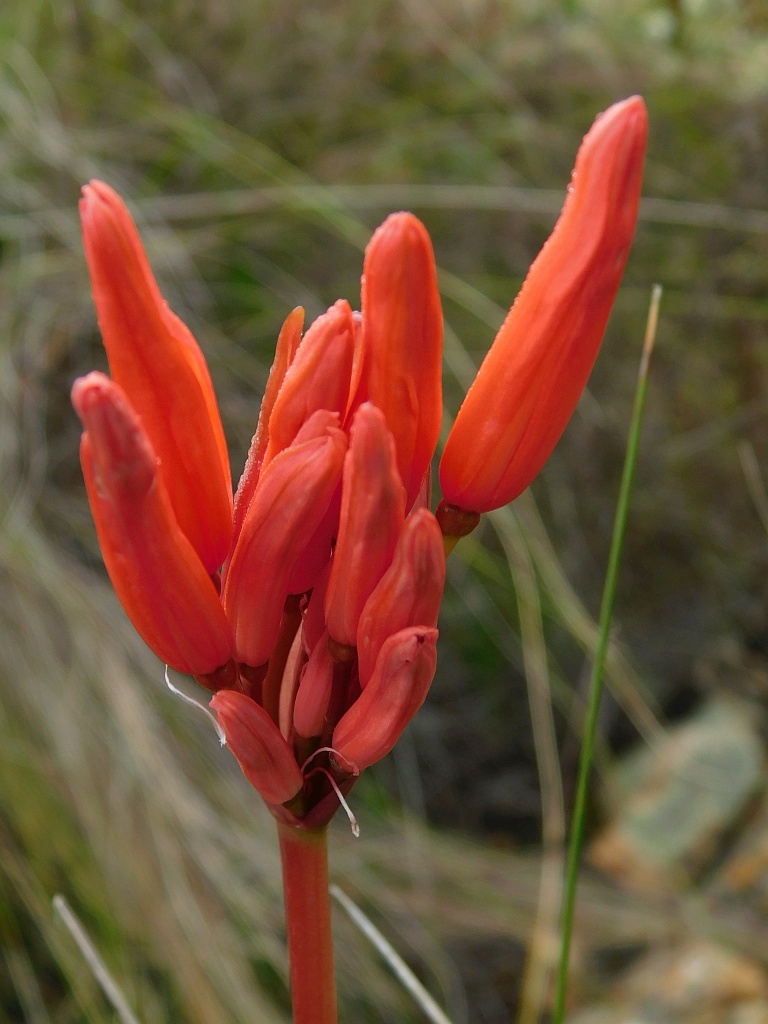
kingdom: Plantae
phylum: Tracheophyta
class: Liliopsida
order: Asparagales
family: Amaryllidaceae
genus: Nerine
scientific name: Nerine sarniensis
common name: Guernsey-lily
